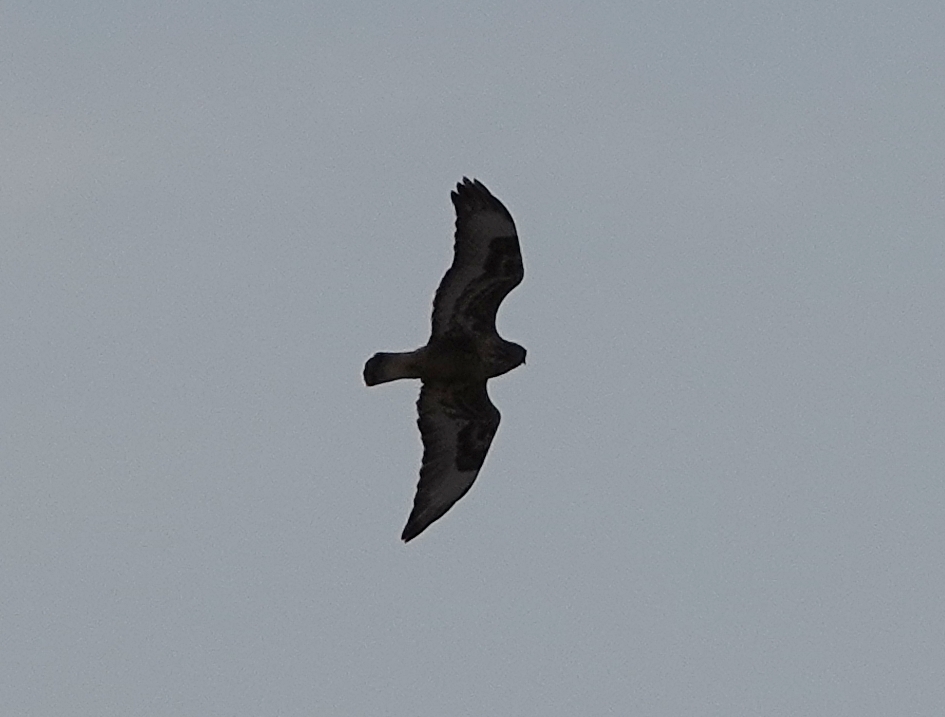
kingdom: Animalia
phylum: Chordata
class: Aves
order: Accipitriformes
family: Accipitridae
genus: Buteo
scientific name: Buteo lagopus
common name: Rough-legged buzzard
